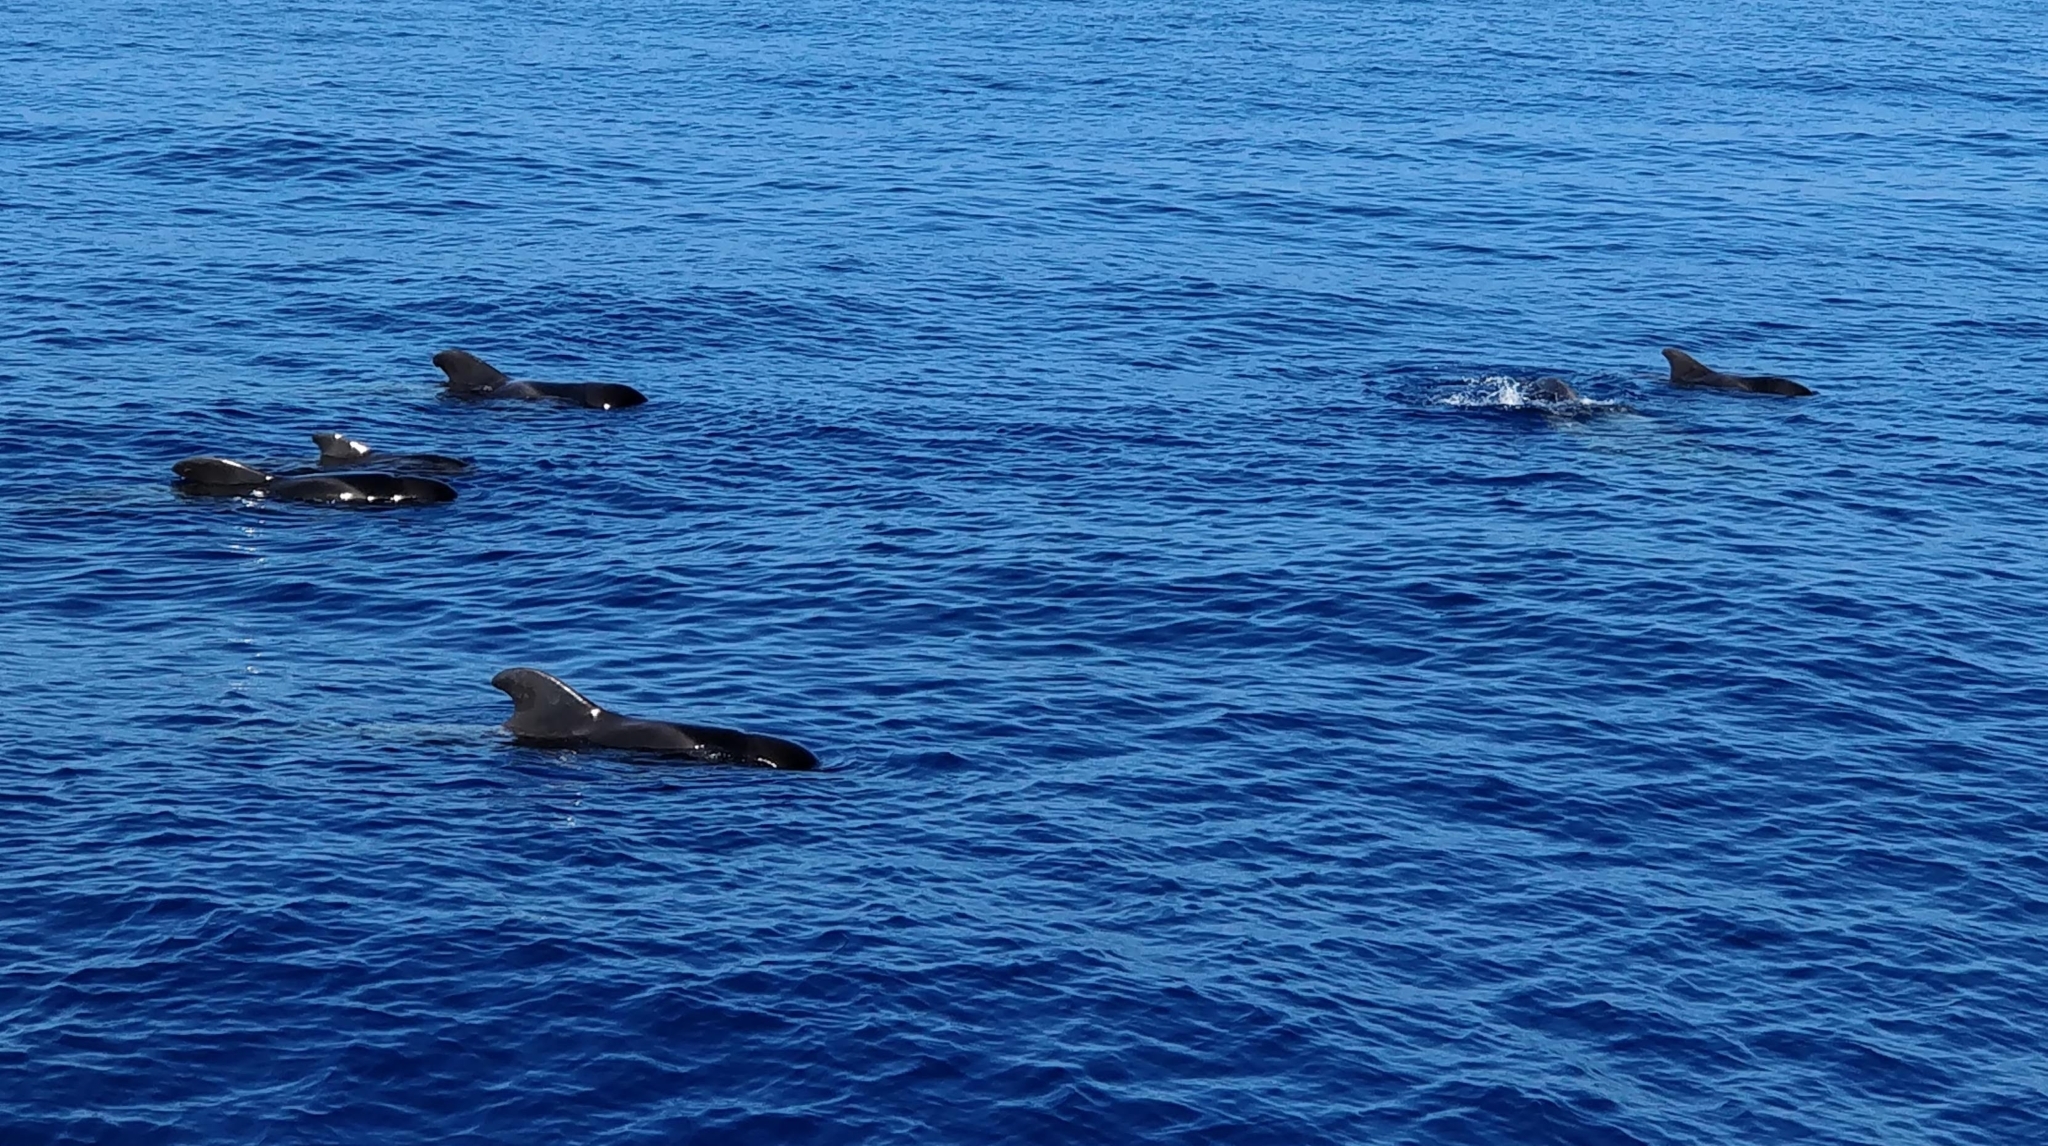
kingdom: Animalia
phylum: Chordata
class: Mammalia
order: Cetacea
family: Delphinidae
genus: Globicephala
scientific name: Globicephala macrorhynchus
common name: Short-finned pilot whale
